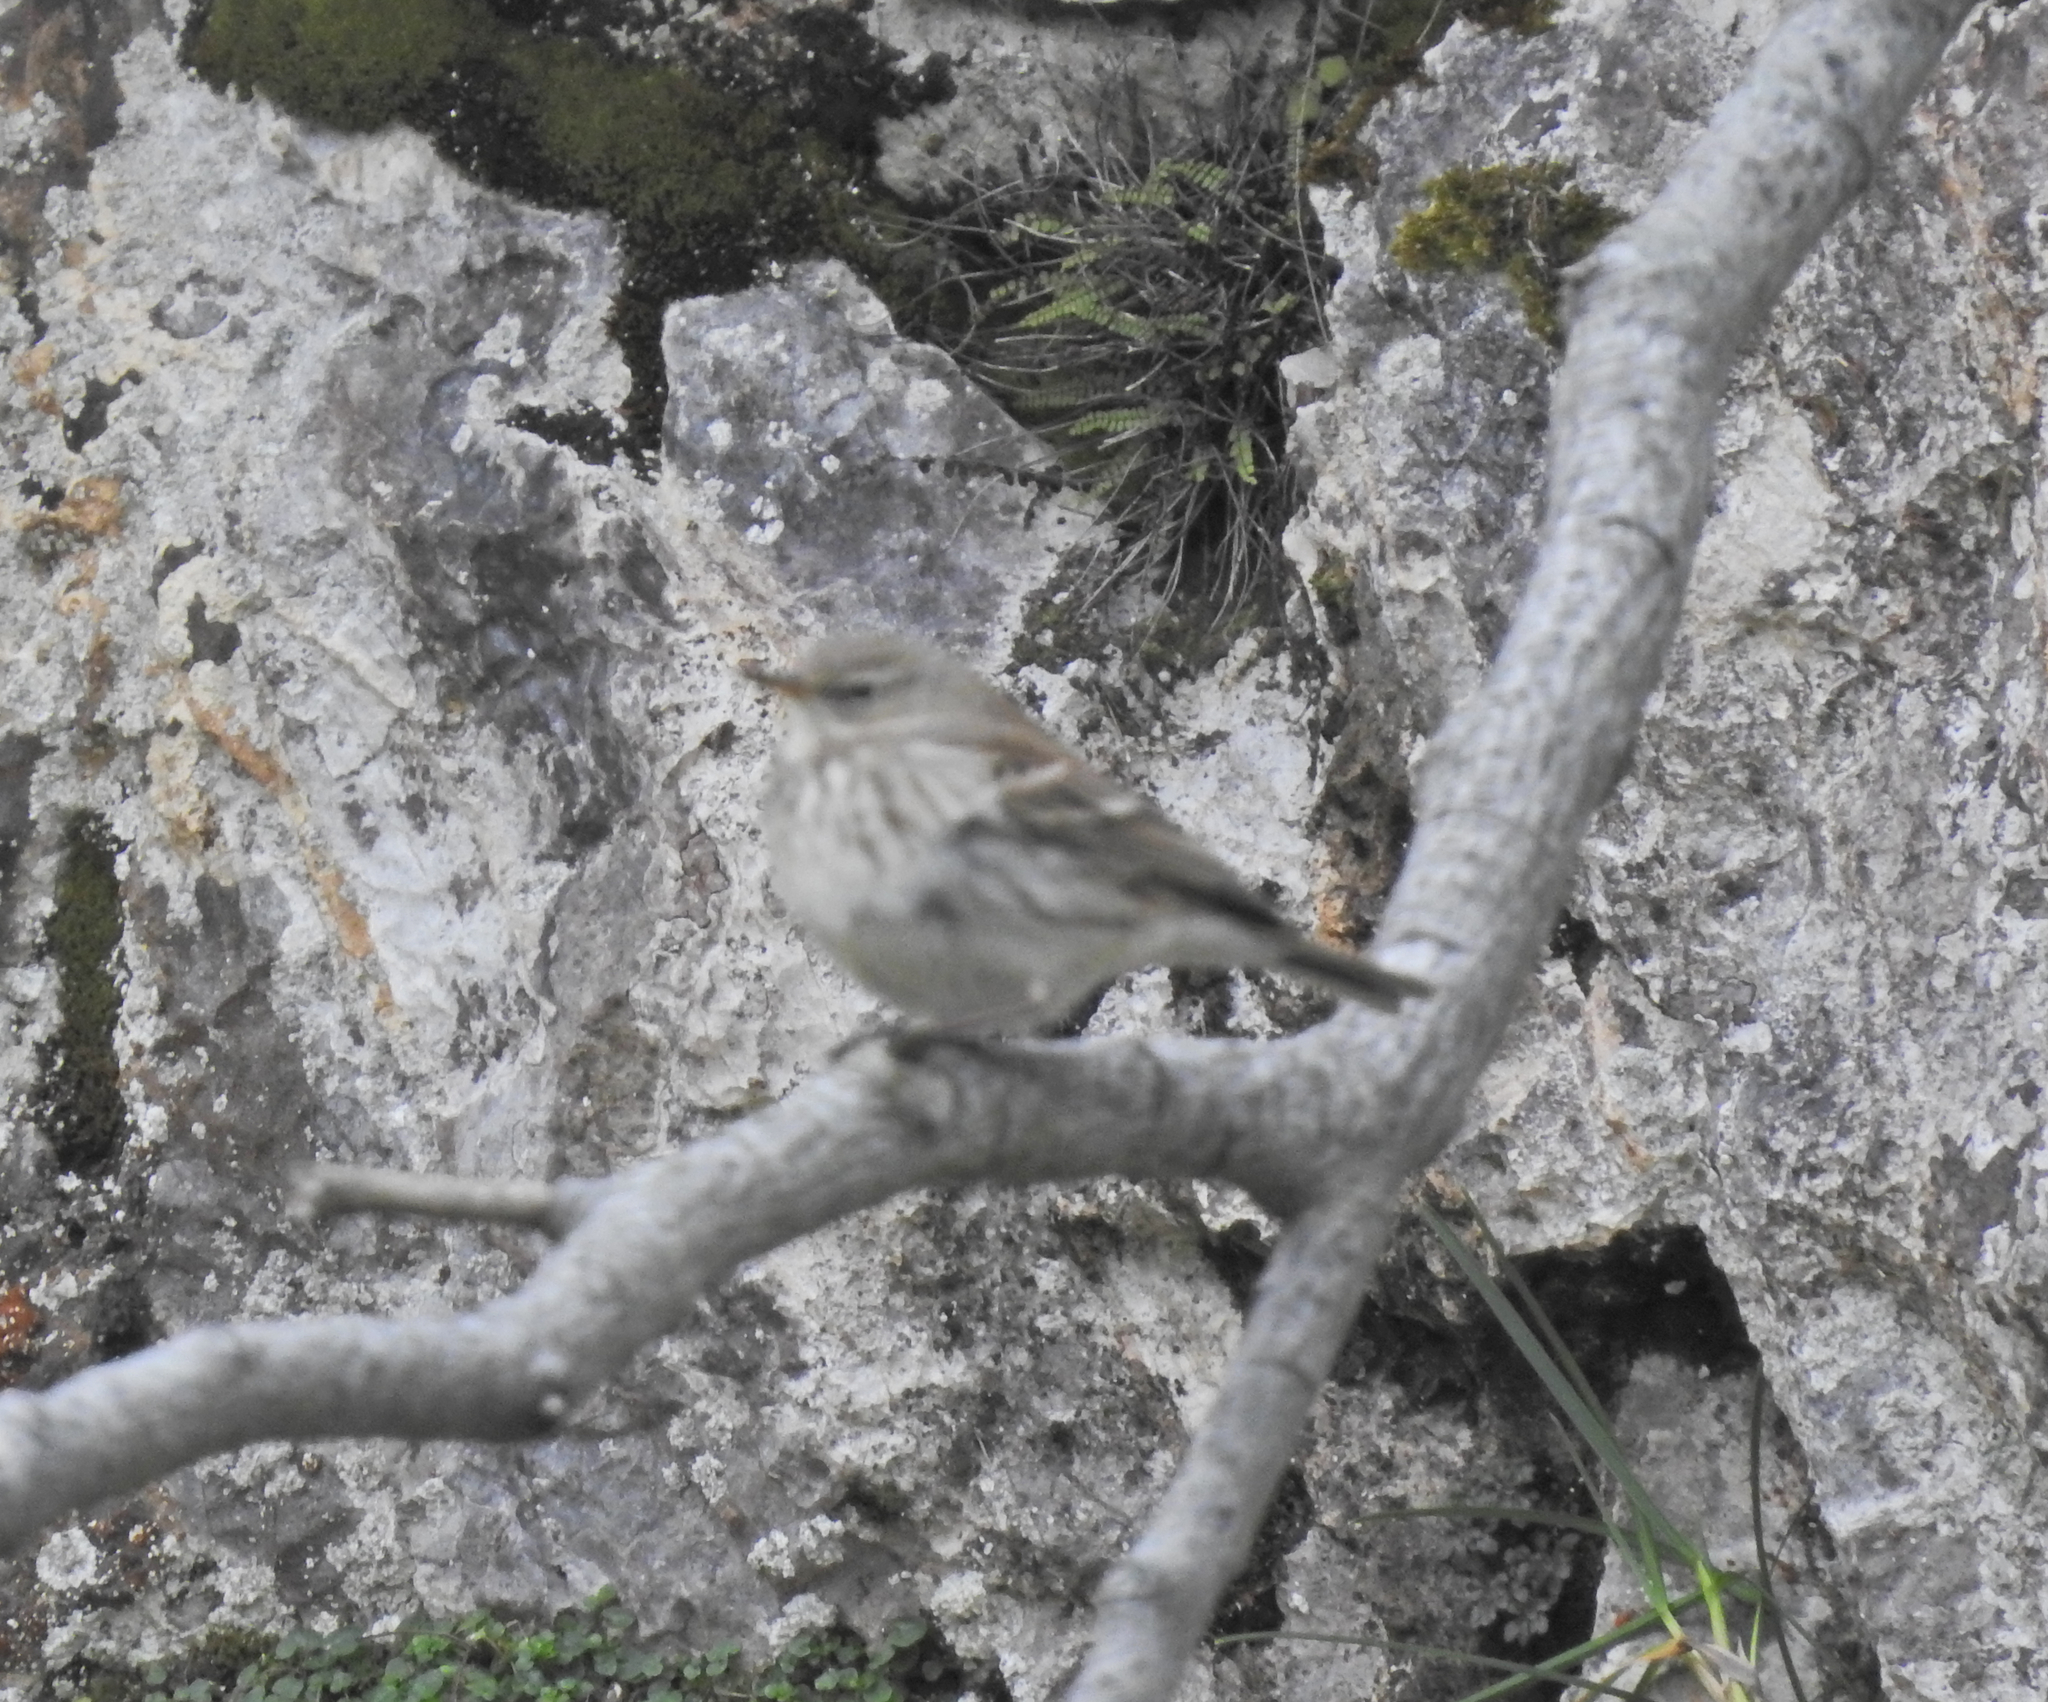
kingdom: Animalia
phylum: Chordata
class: Aves
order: Passeriformes
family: Motacillidae
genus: Anthus
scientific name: Anthus spinoletta
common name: Water pipit
